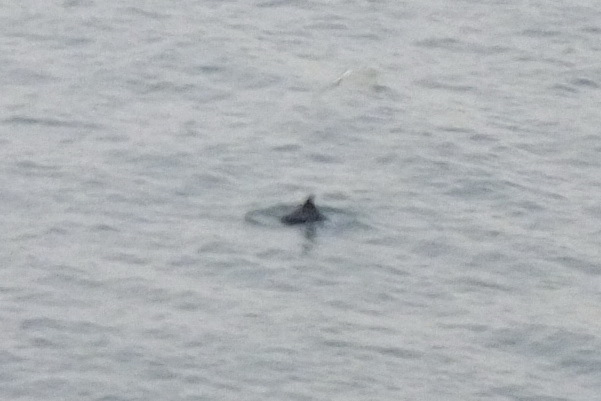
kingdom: Animalia
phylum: Chordata
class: Mammalia
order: Cetacea
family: Phocoenidae
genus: Phocoena
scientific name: Phocoena phocoena
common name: Harbor porpoise
